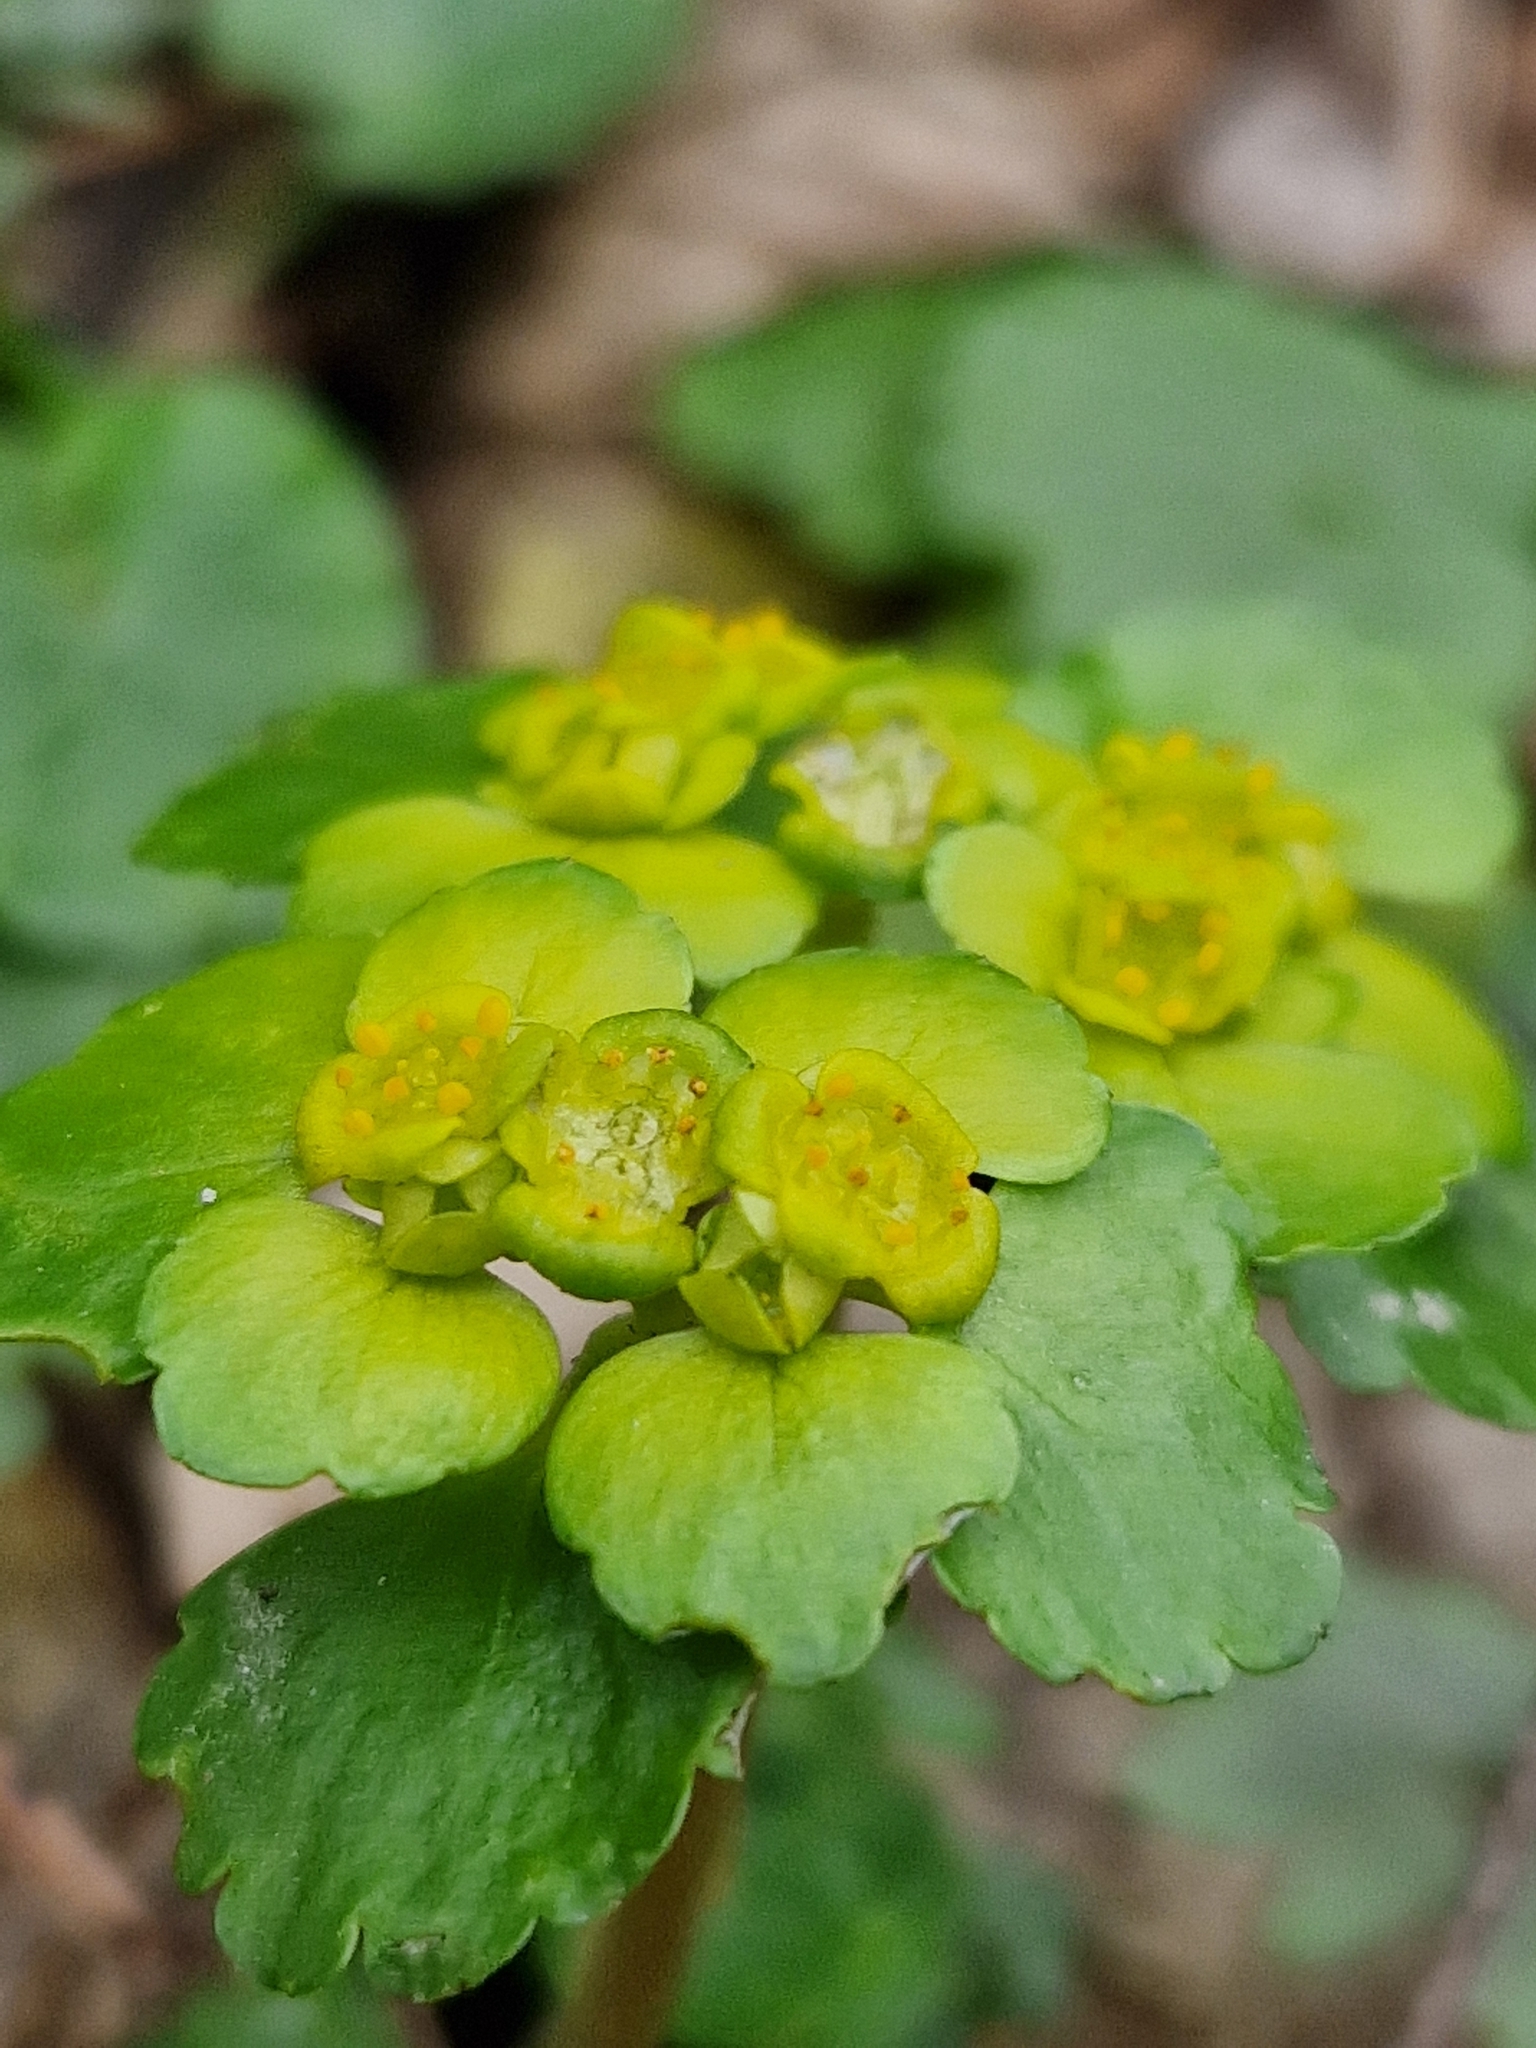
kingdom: Plantae
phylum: Tracheophyta
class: Magnoliopsida
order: Saxifragales
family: Saxifragaceae
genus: Chrysosplenium
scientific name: Chrysosplenium alternifolium
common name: Alternate-leaved golden-saxifrage
